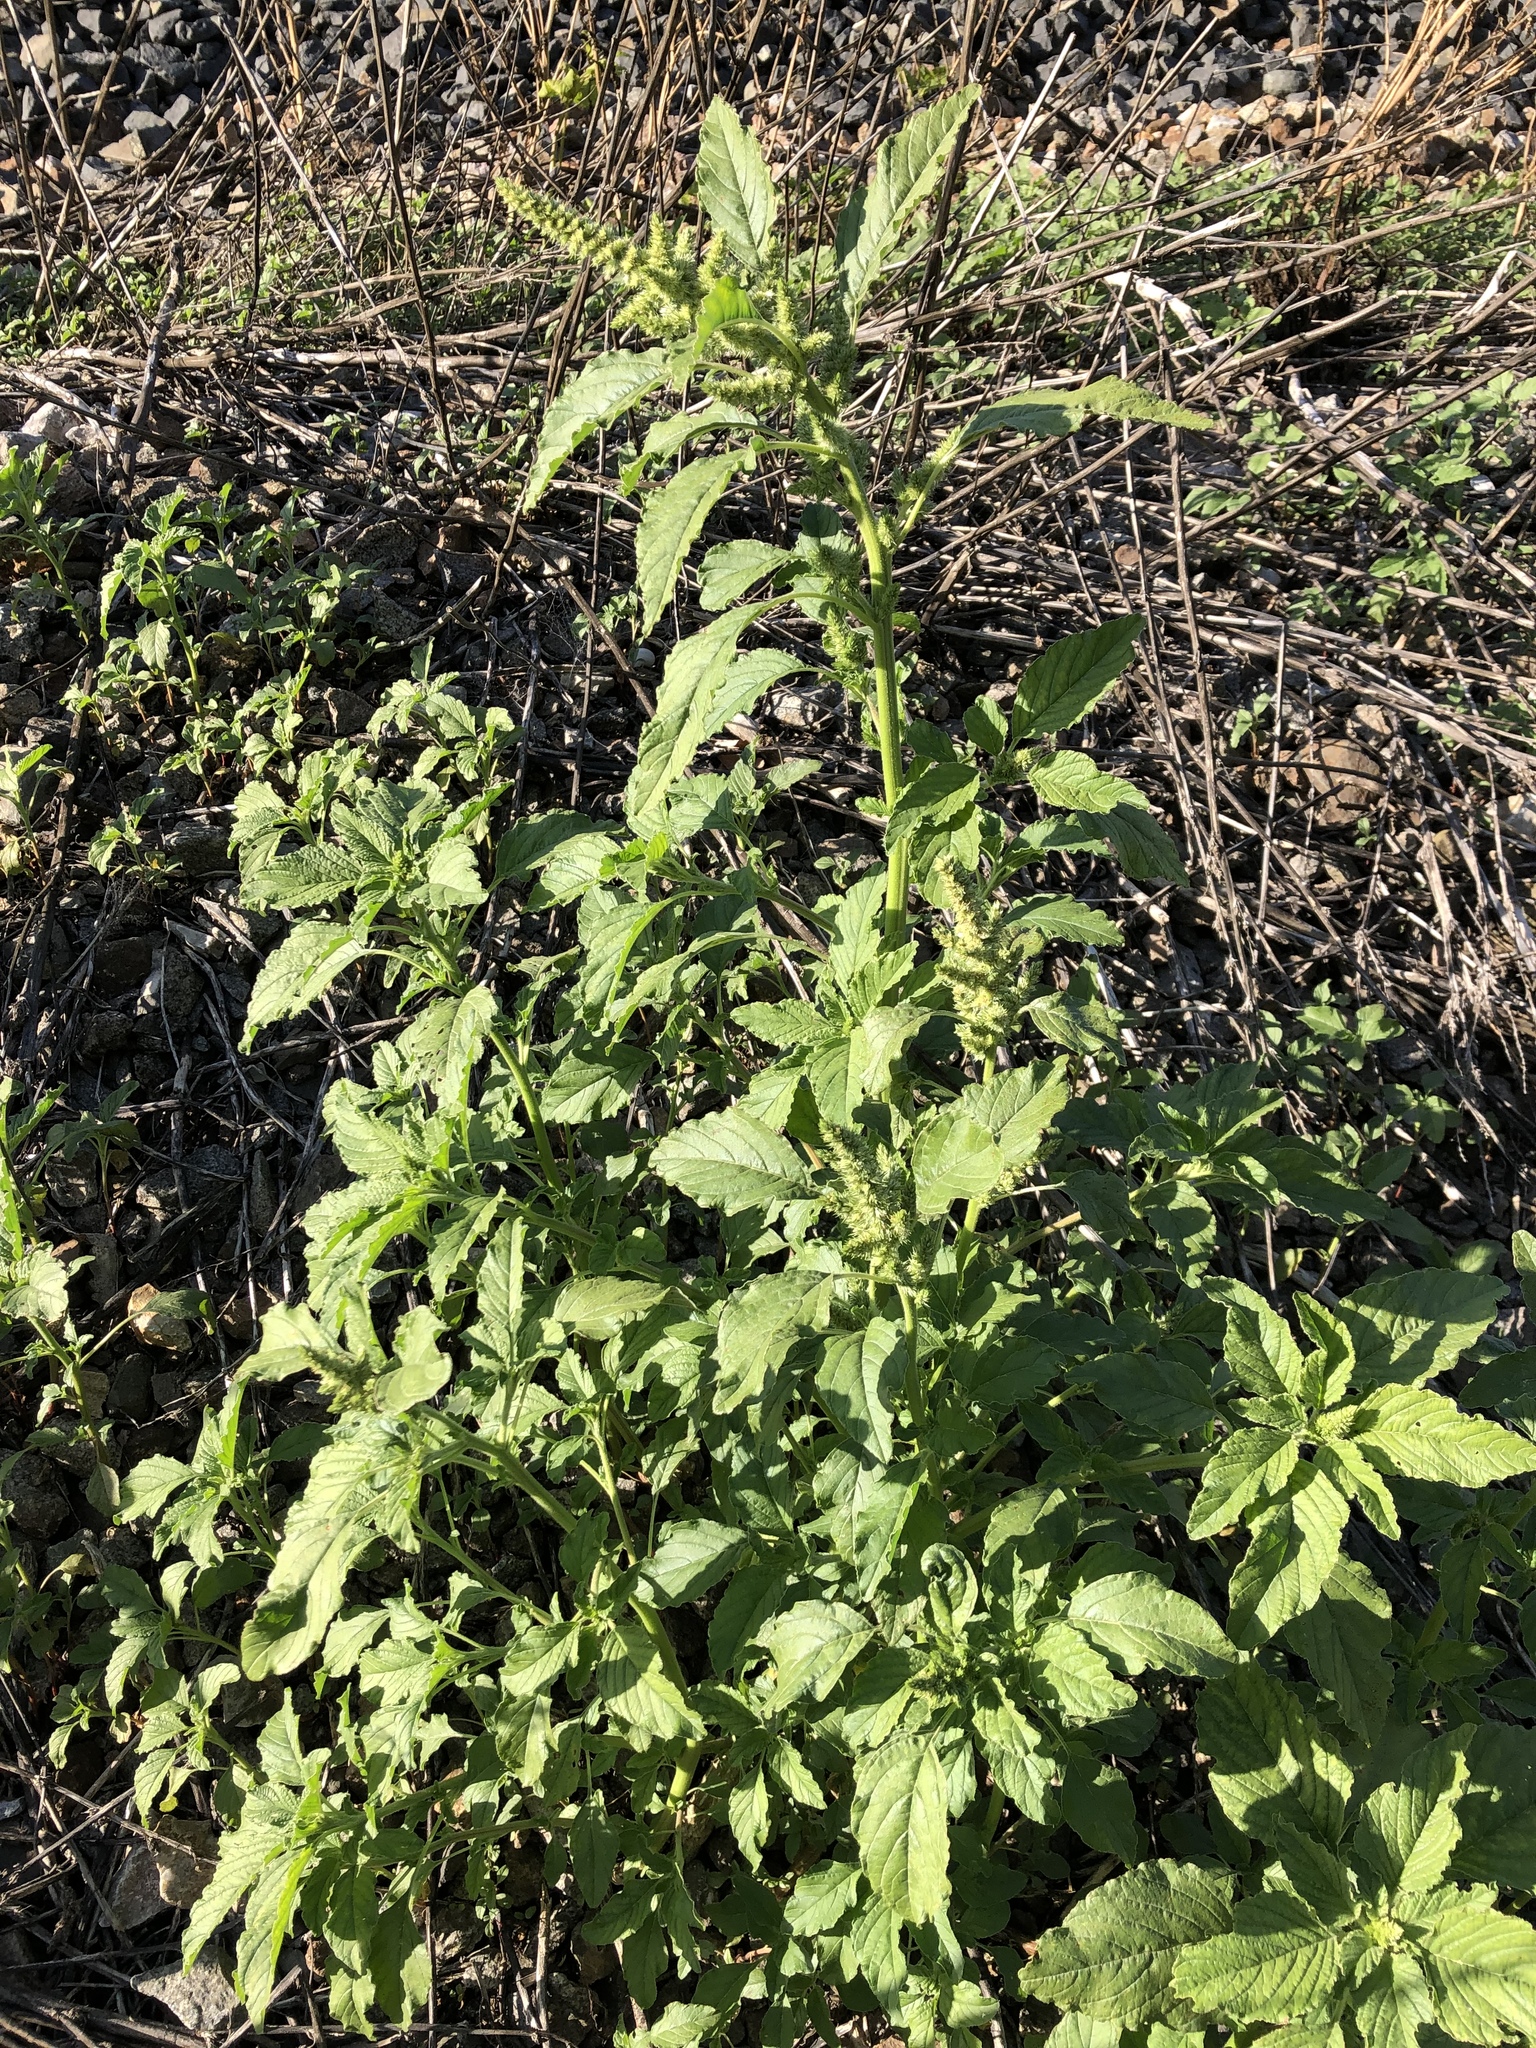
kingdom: Plantae
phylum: Tracheophyta
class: Magnoliopsida
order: Caryophyllales
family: Amaranthaceae
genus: Amaranthus
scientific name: Amaranthus retroflexus
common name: Redroot amaranth
